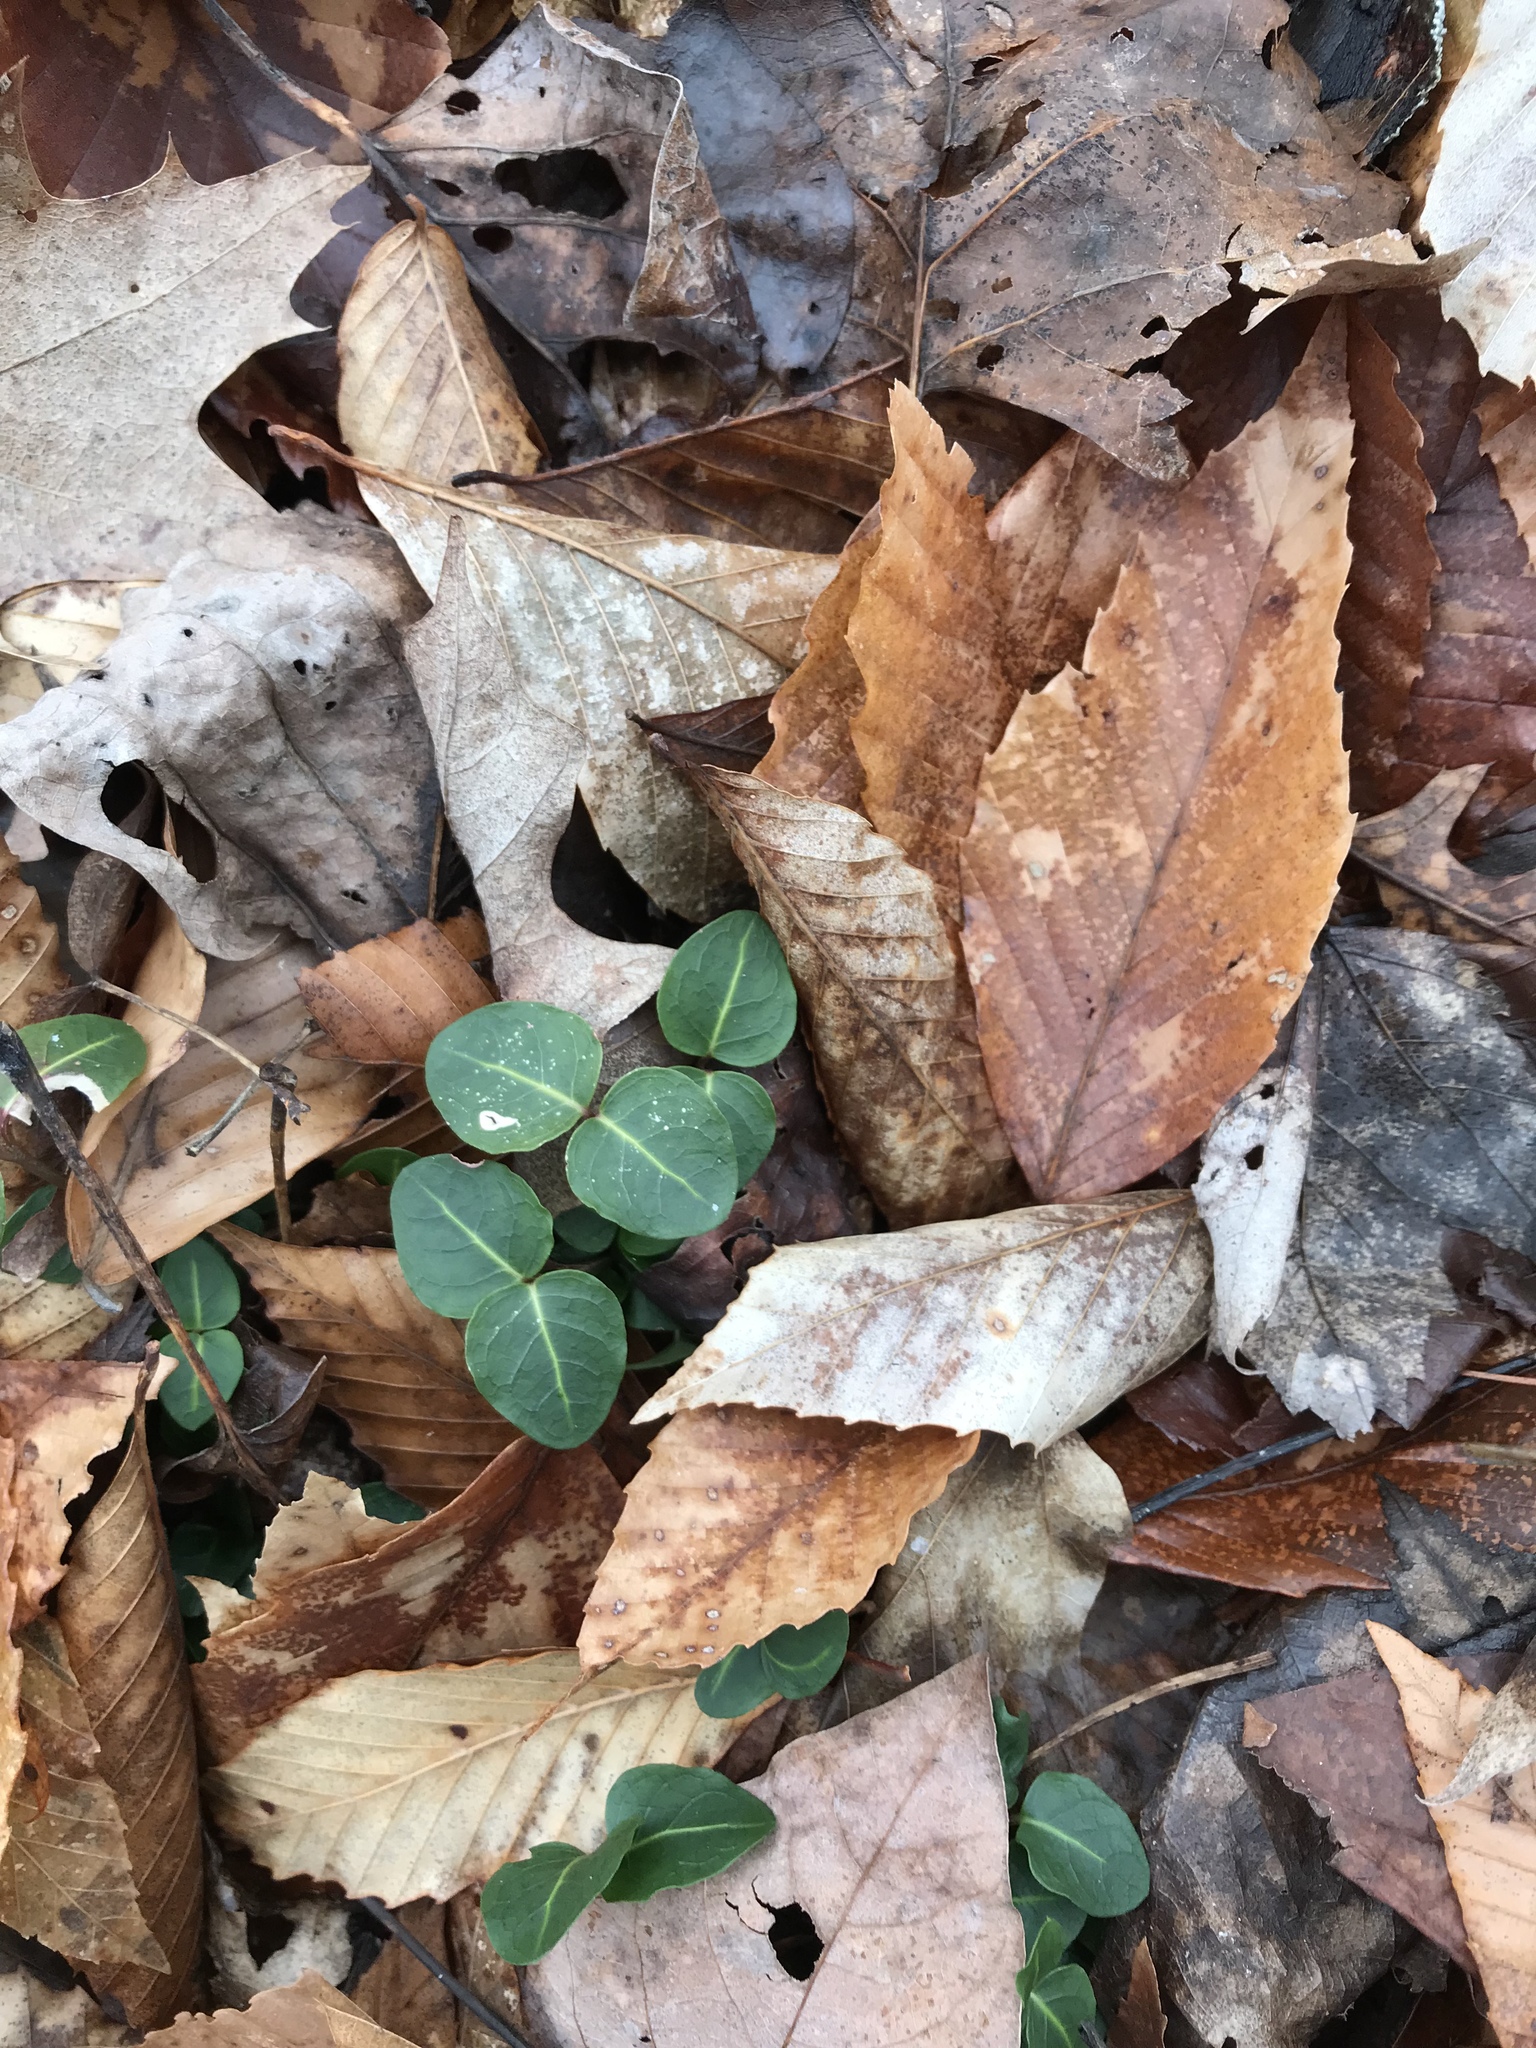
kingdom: Plantae
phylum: Tracheophyta
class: Magnoliopsida
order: Gentianales
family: Rubiaceae
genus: Mitchella
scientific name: Mitchella repens
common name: Partridge-berry
